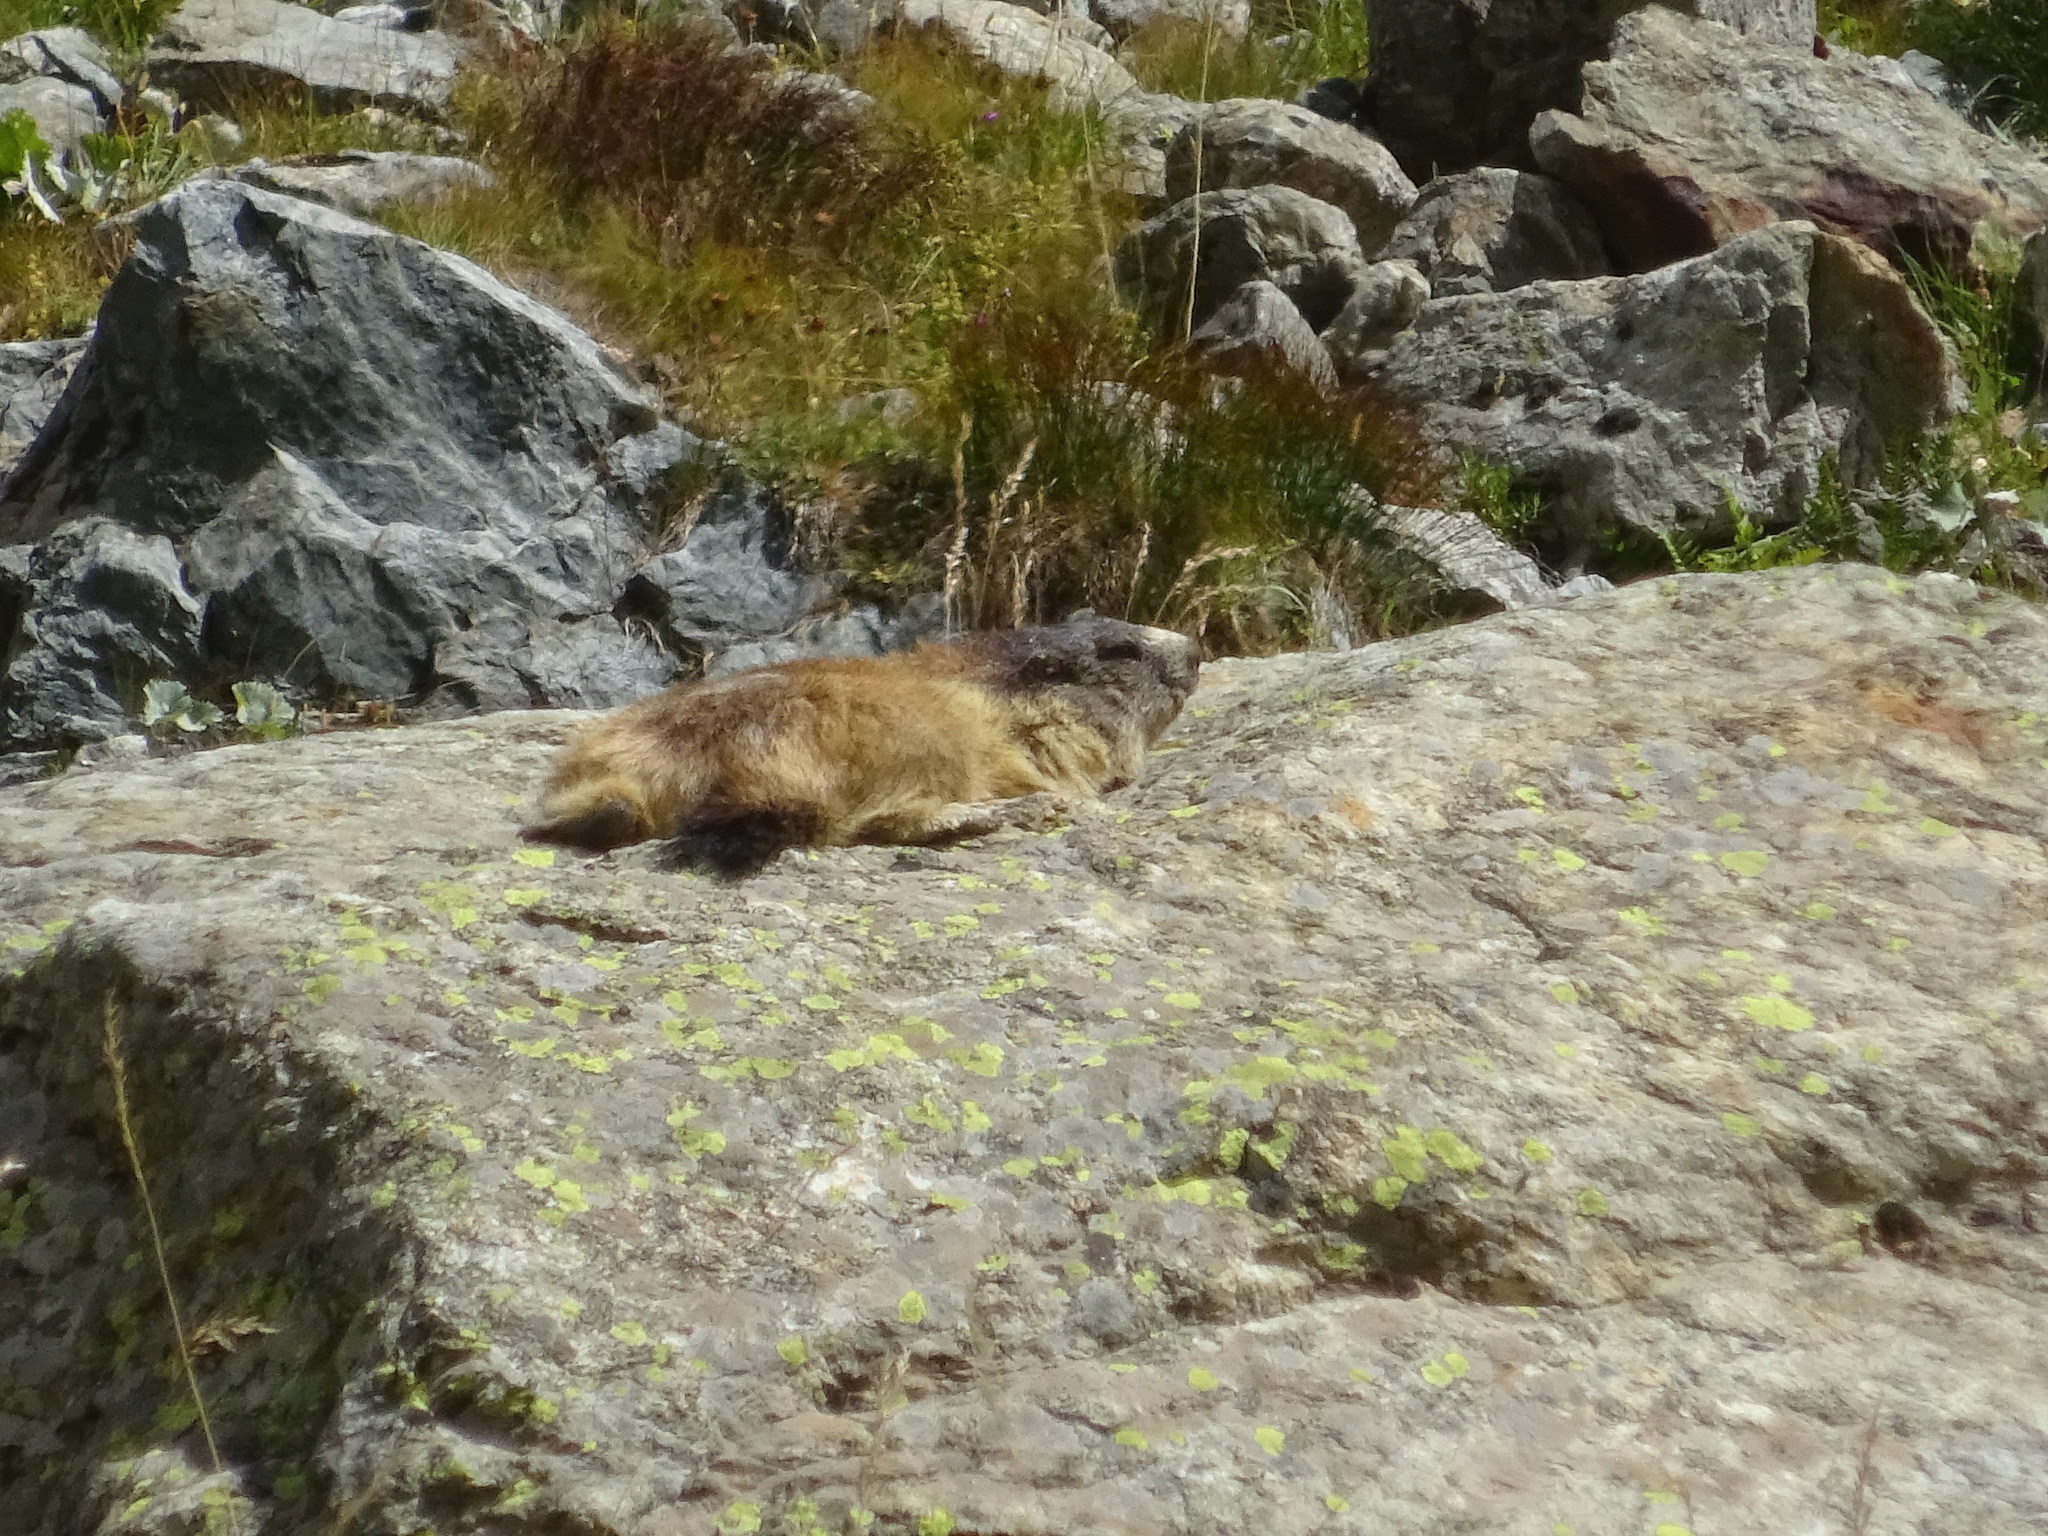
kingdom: Animalia
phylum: Chordata
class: Mammalia
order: Rodentia
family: Sciuridae
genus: Marmota
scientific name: Marmota marmota
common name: Alpine marmot
